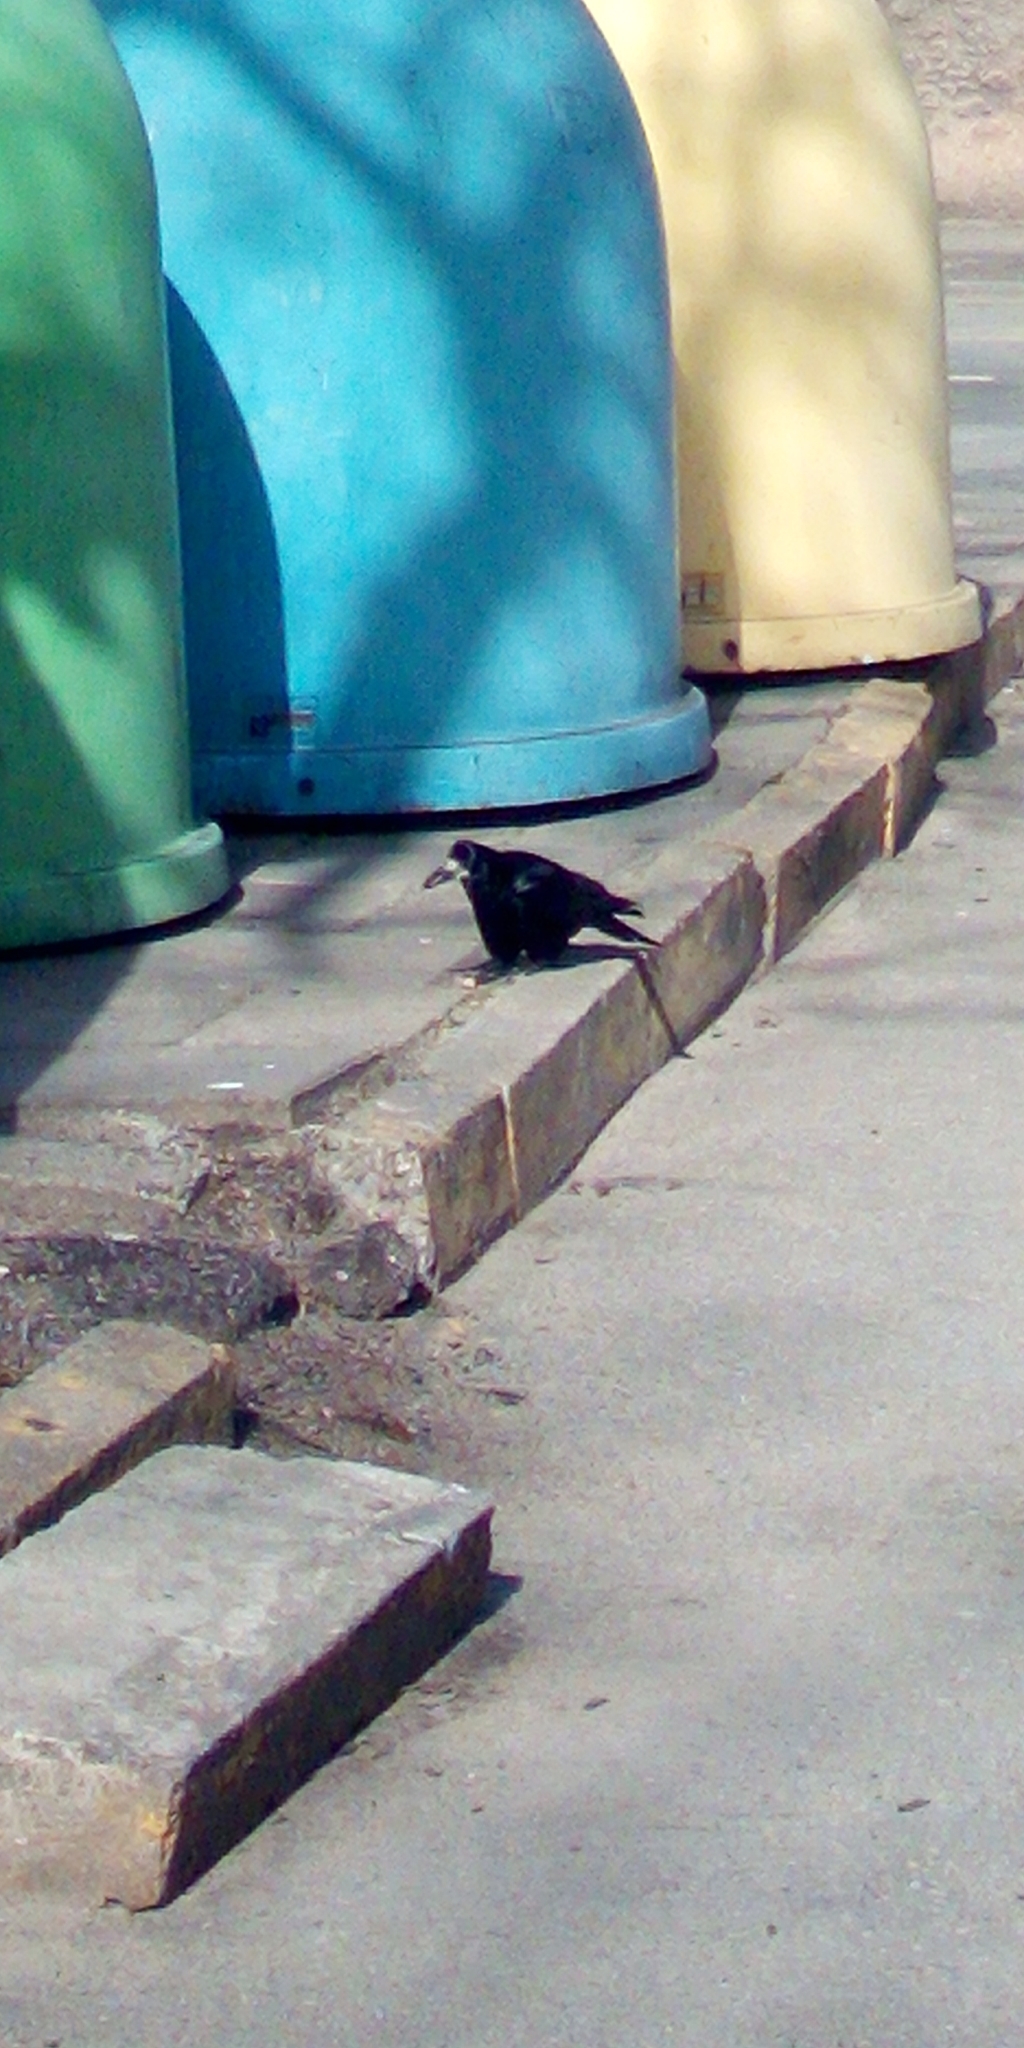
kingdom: Animalia
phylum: Chordata
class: Aves
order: Passeriformes
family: Corvidae
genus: Corvus
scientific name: Corvus frugilegus
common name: Rook
